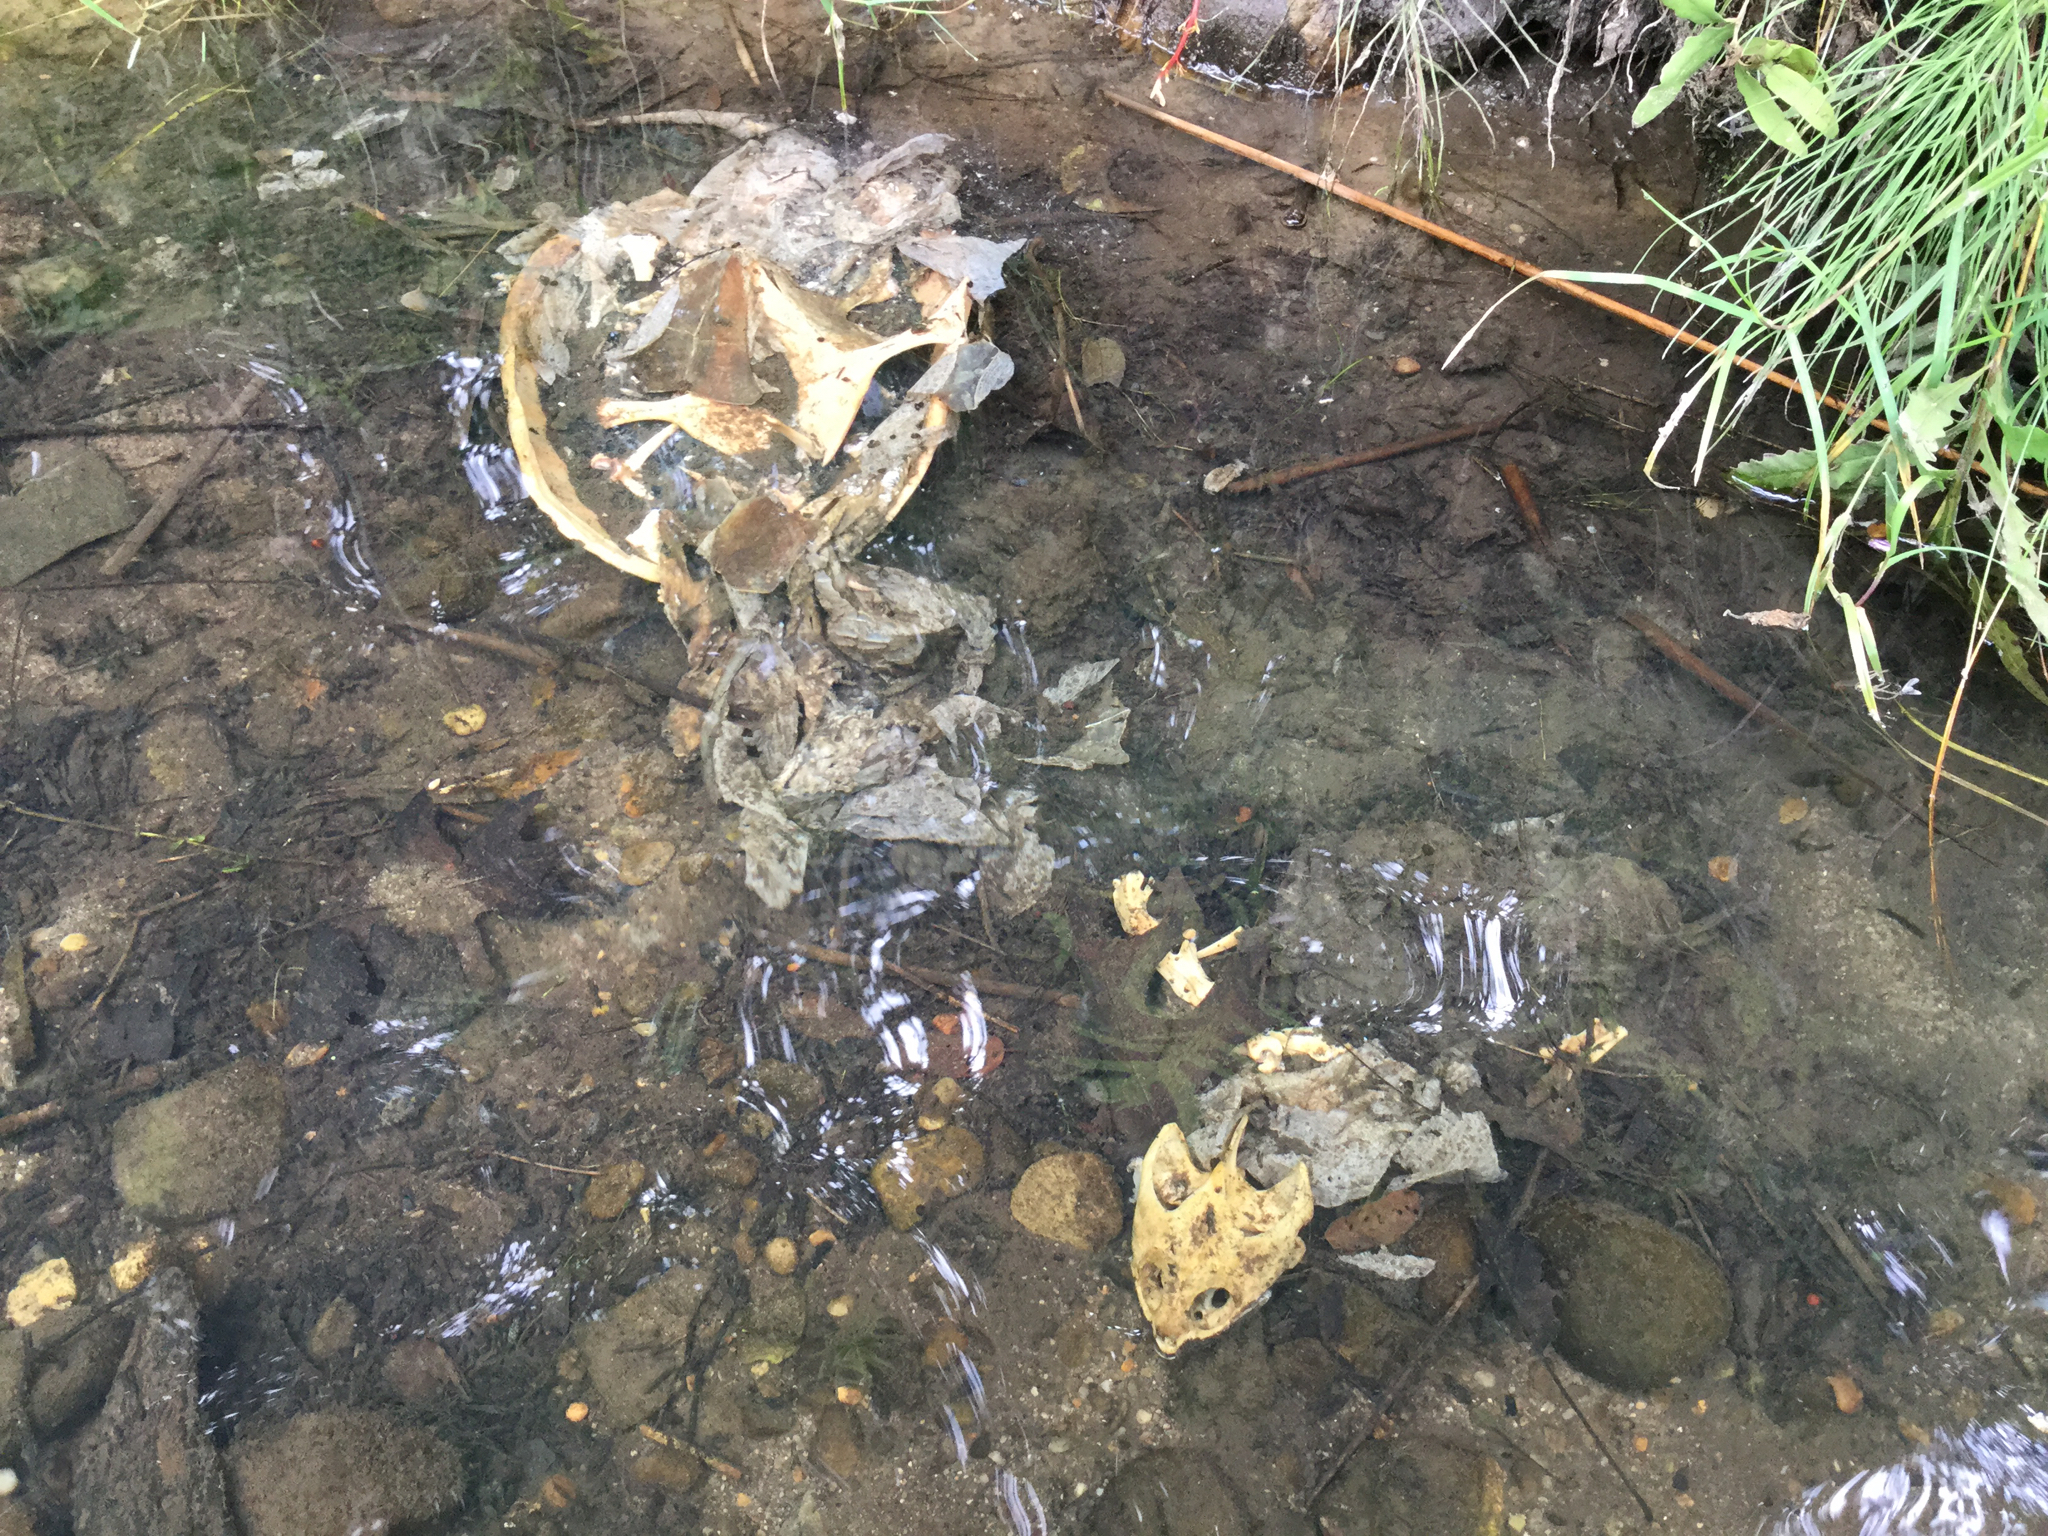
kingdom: Animalia
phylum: Chordata
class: Testudines
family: Chelydridae
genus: Chelydra
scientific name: Chelydra serpentina
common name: Common snapping turtle
